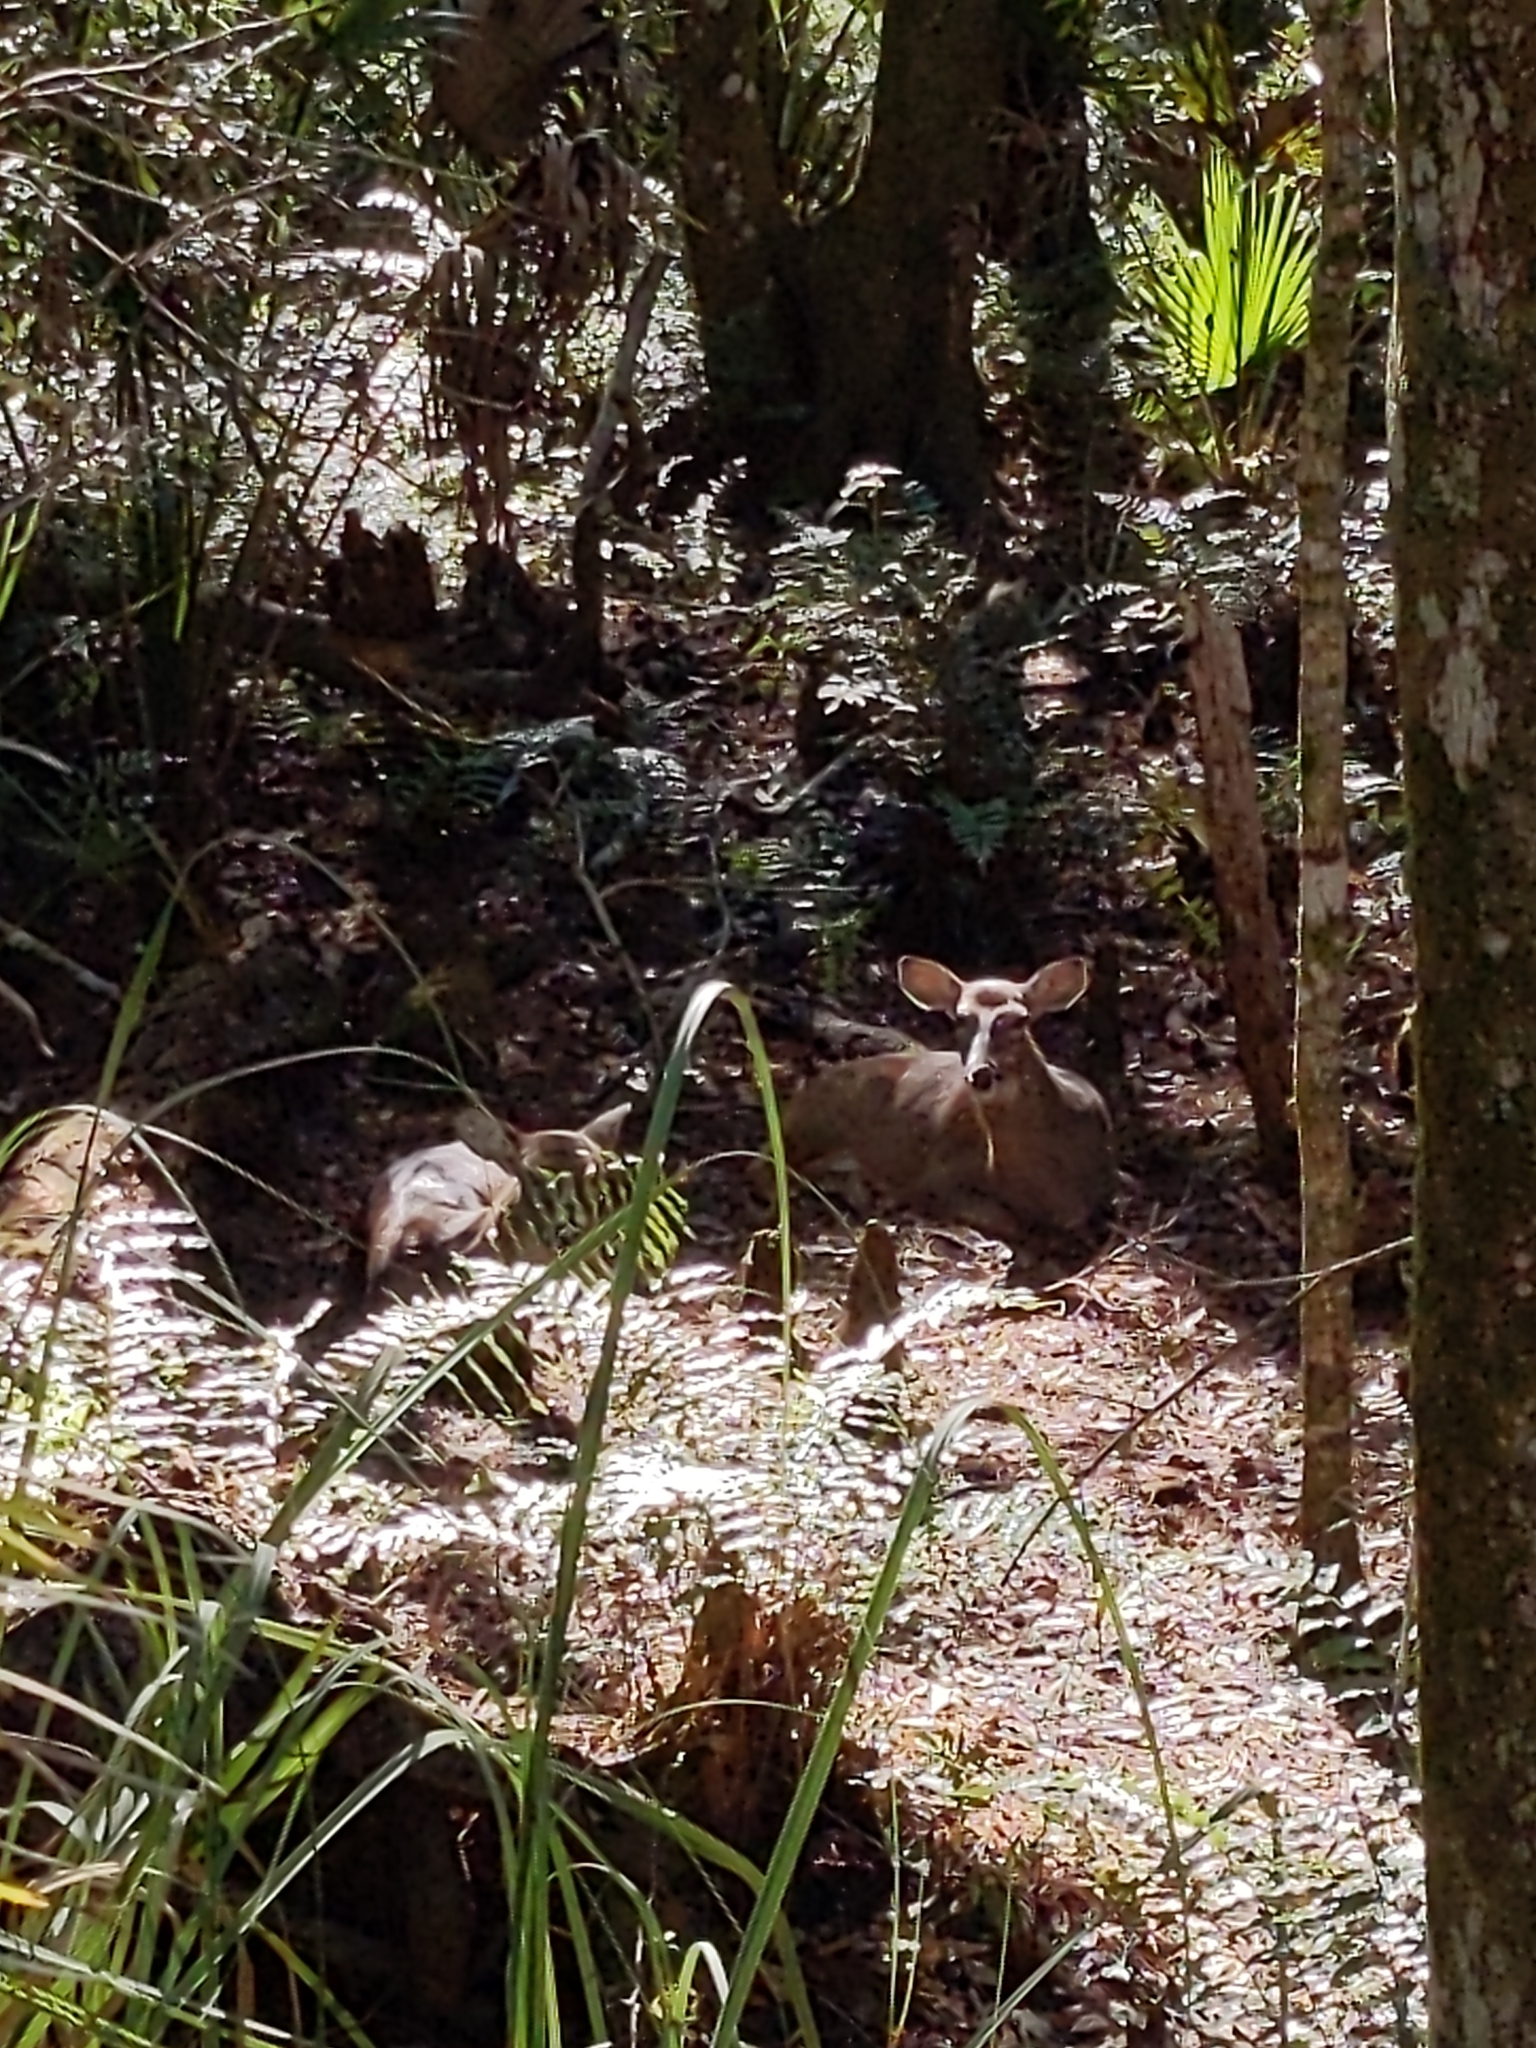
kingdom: Animalia
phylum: Chordata
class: Mammalia
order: Artiodactyla
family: Cervidae
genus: Odocoileus
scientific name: Odocoileus virginianus
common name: White-tailed deer
